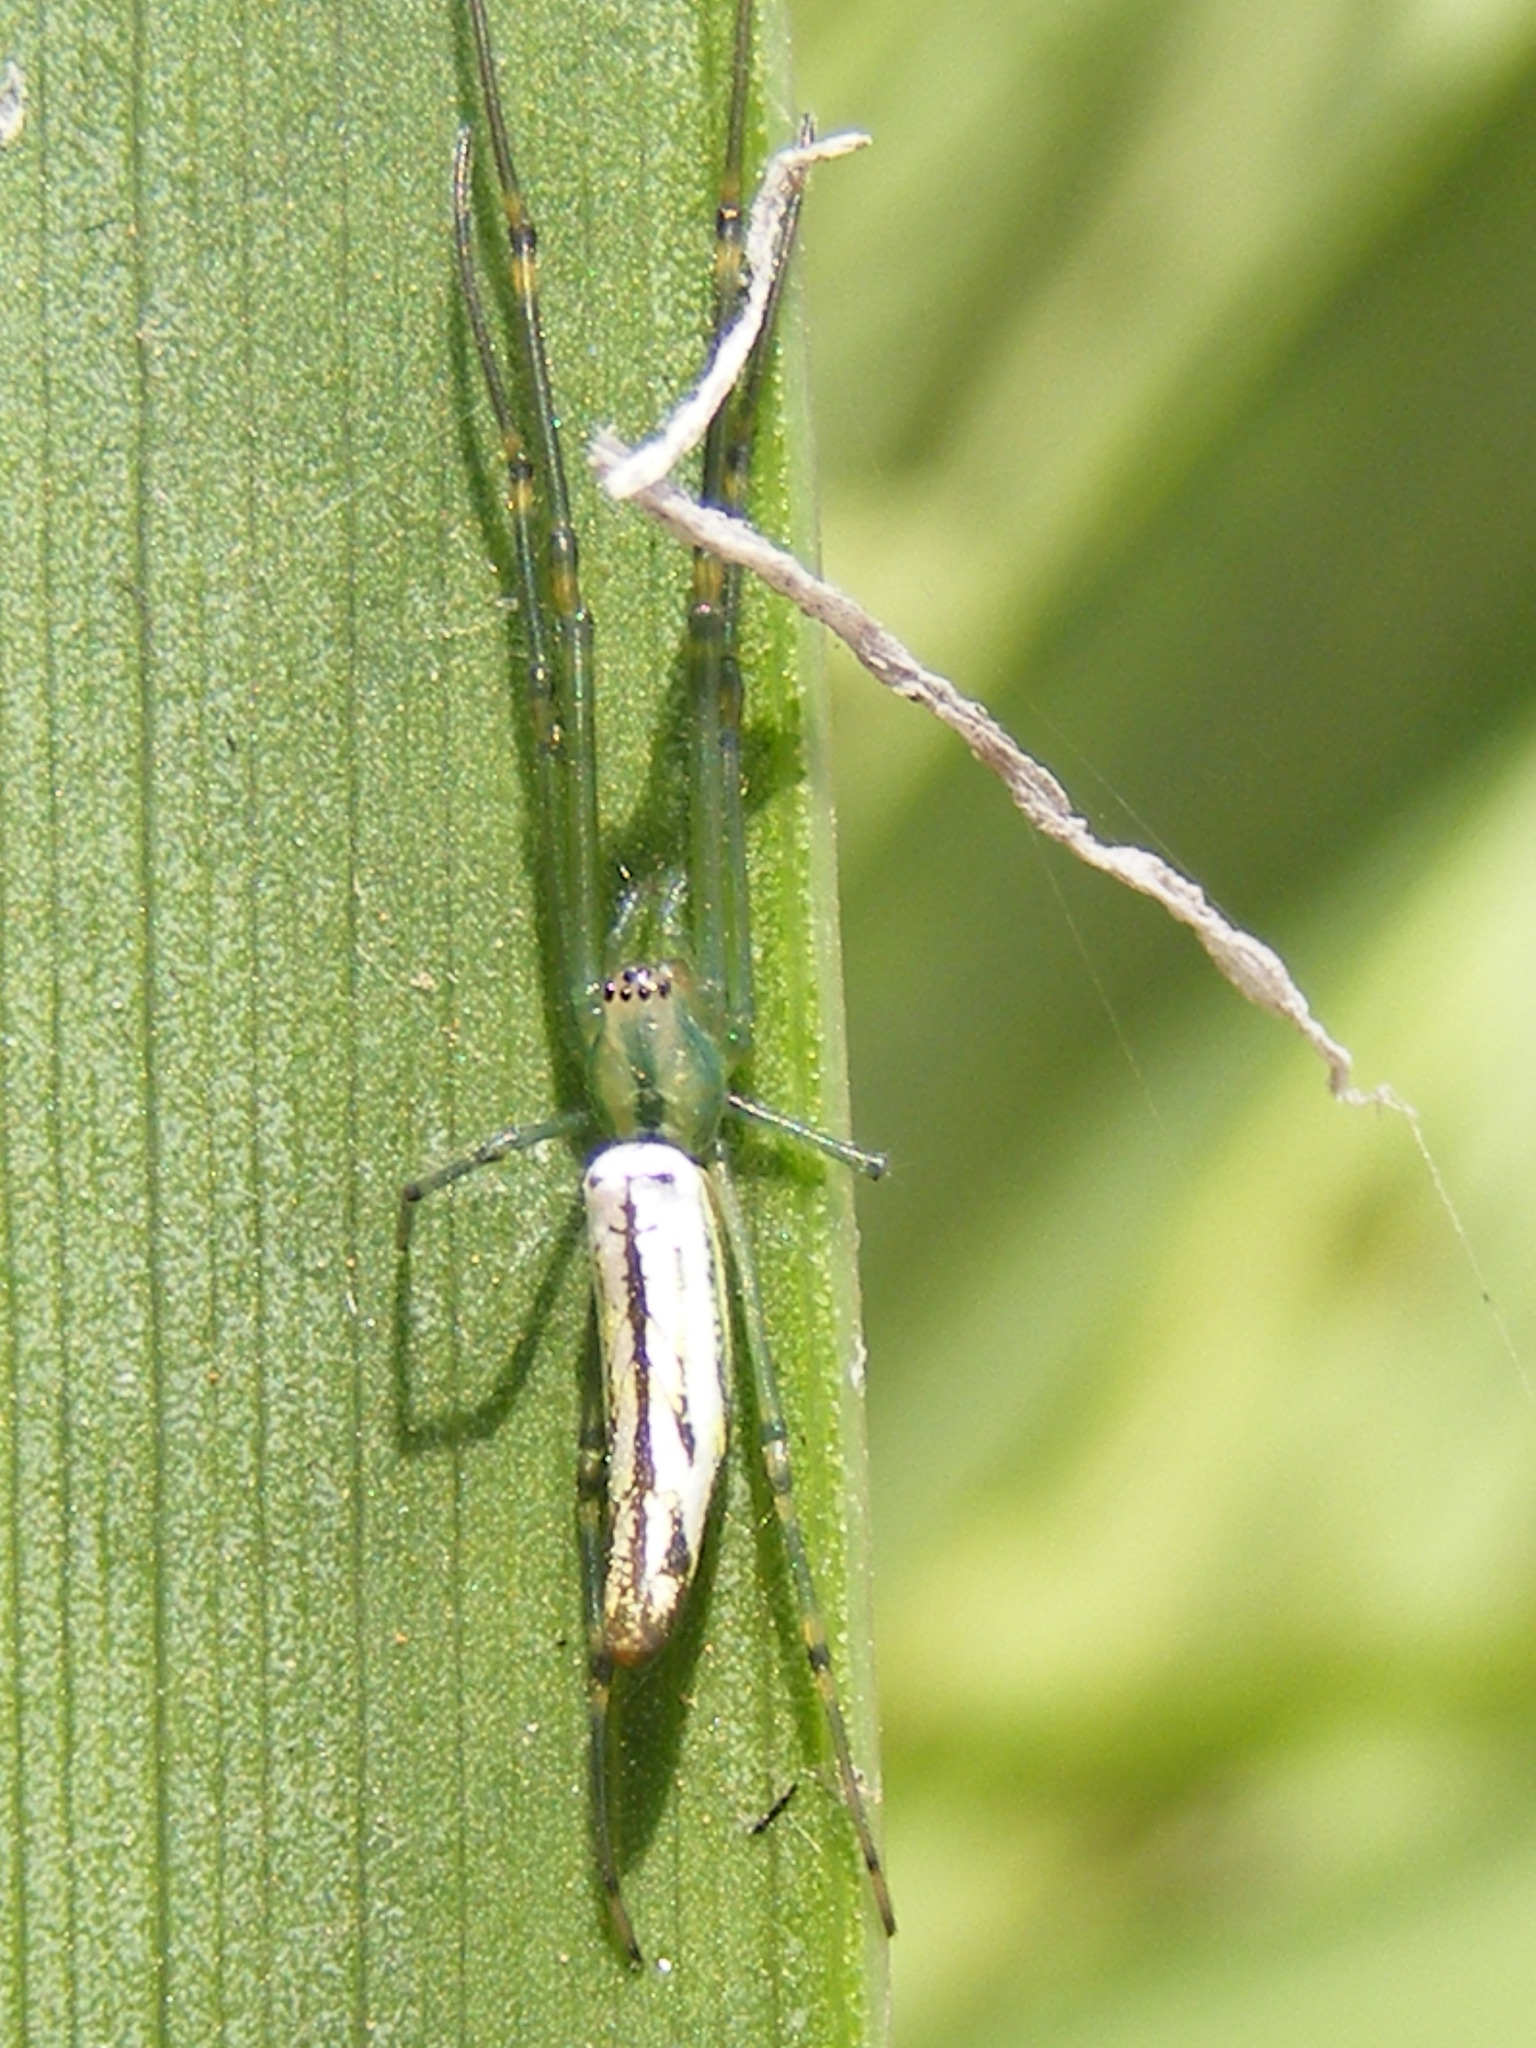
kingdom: Animalia
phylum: Arthropoda
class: Arachnida
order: Araneae
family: Tetragnathidae
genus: Leucauge
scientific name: Leucauge kibonotensis
